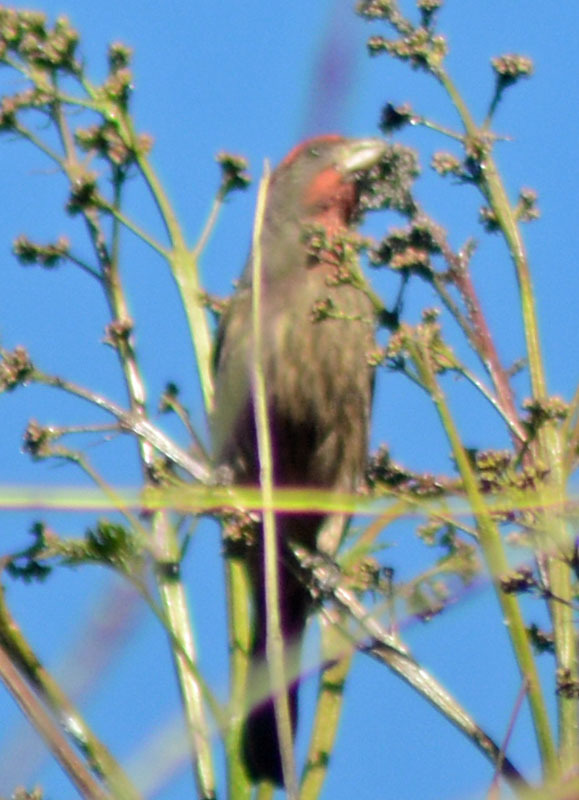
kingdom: Animalia
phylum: Chordata
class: Aves
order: Passeriformes
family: Fringillidae
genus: Haemorhous
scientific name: Haemorhous mexicanus
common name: House finch
